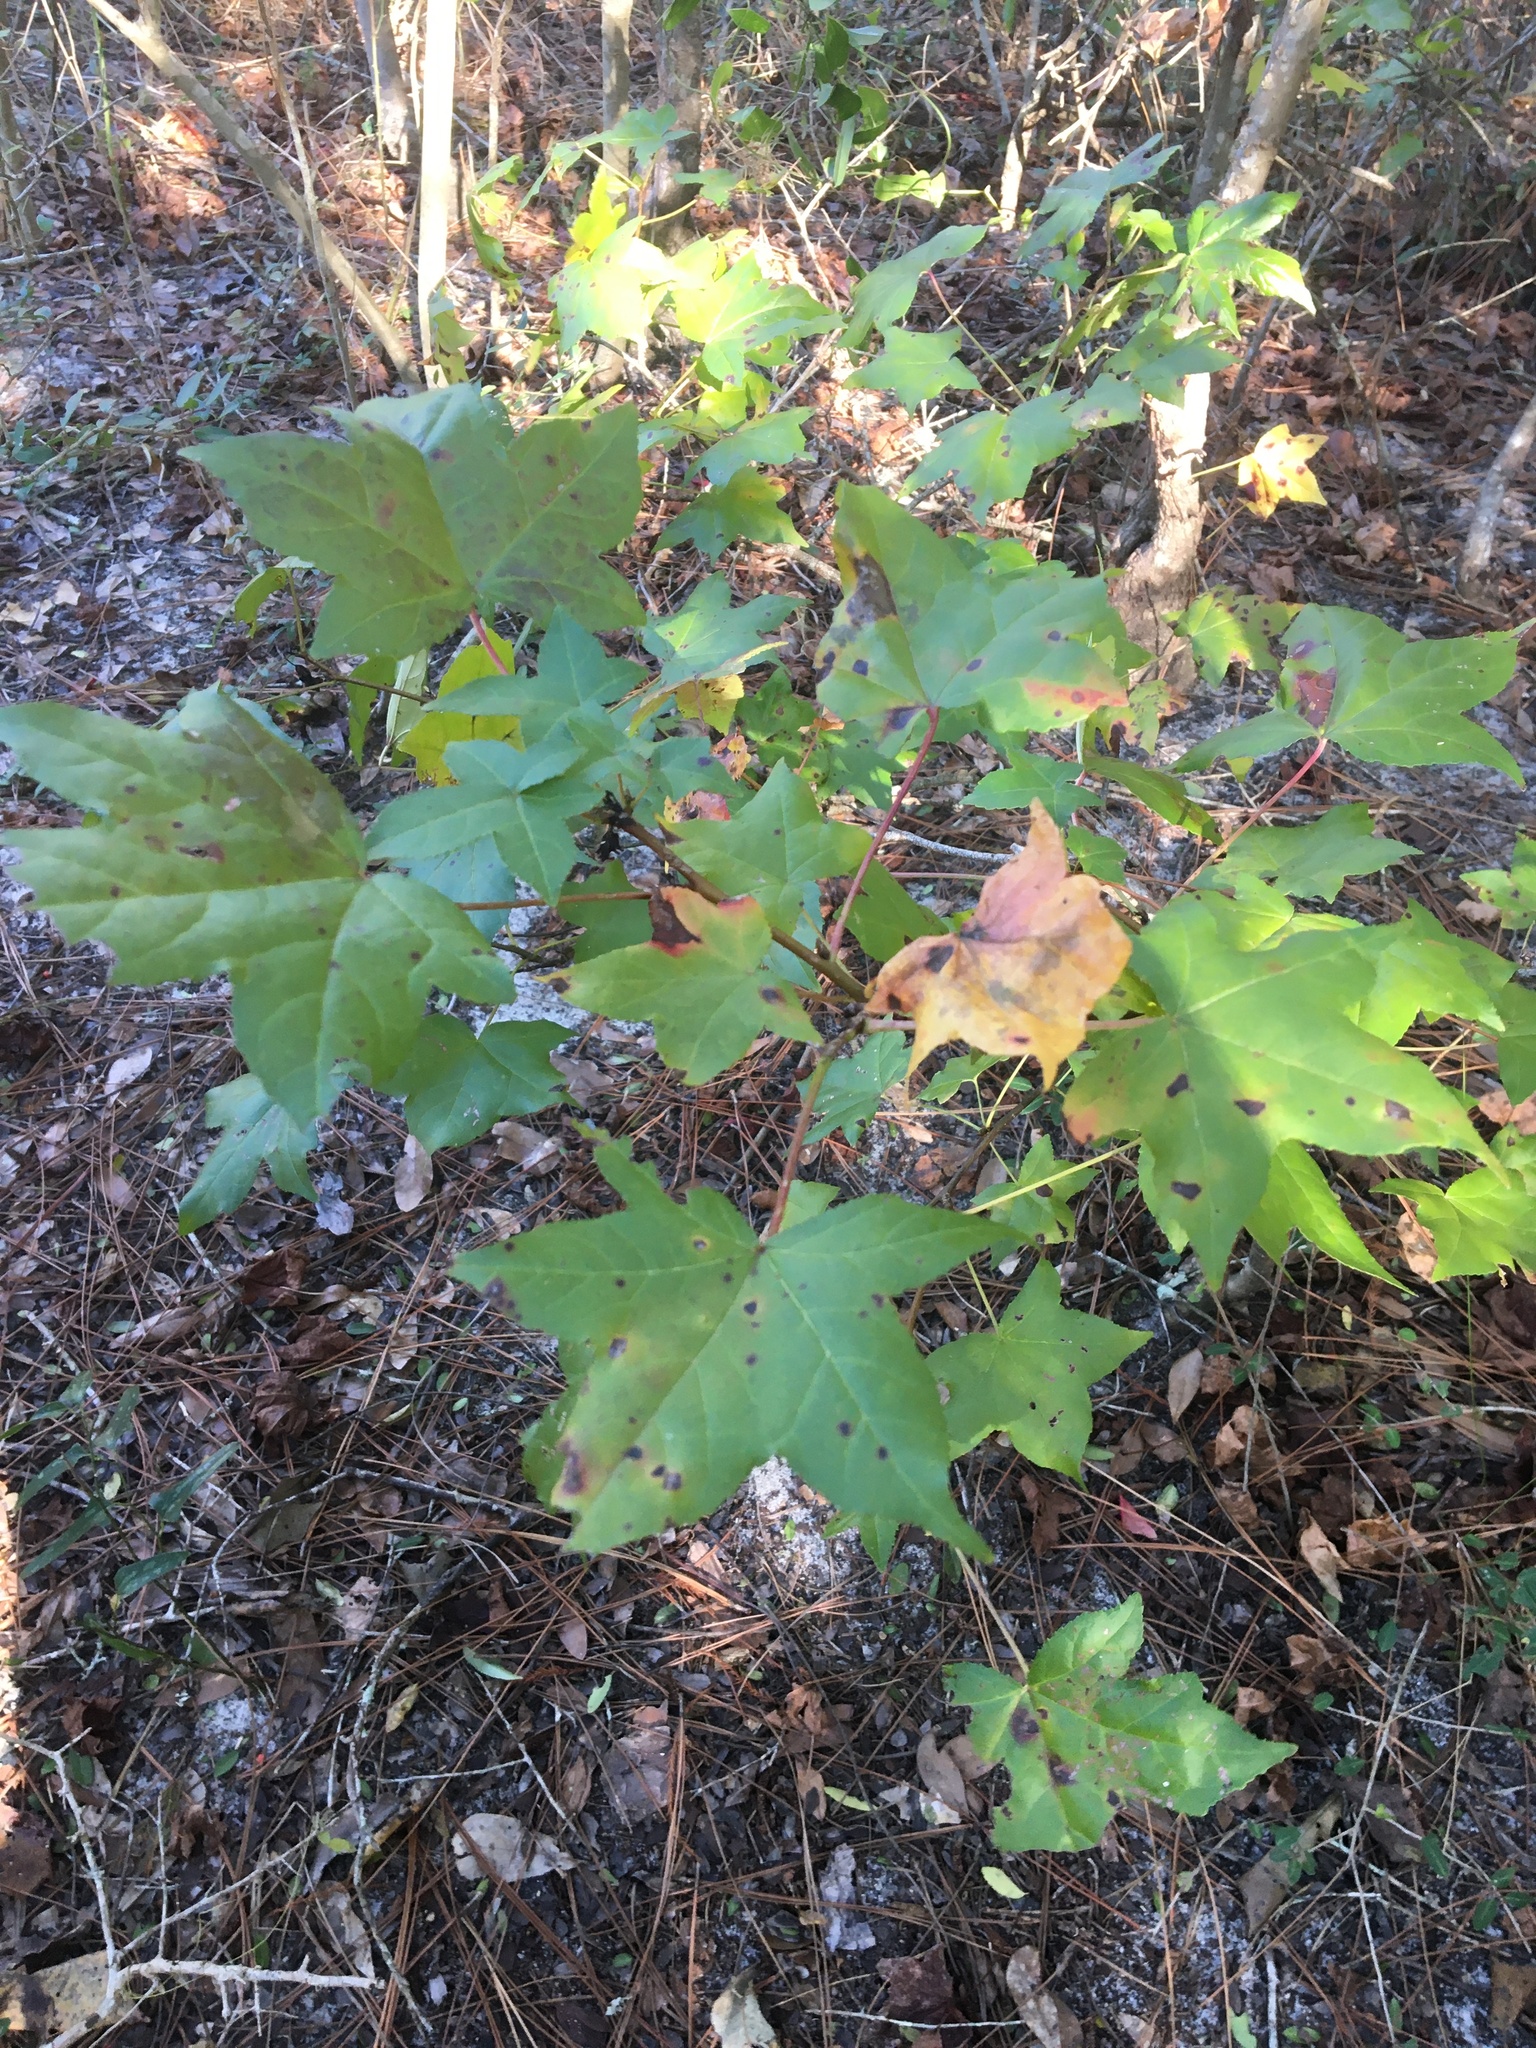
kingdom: Plantae
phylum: Tracheophyta
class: Magnoliopsida
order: Saxifragales
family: Altingiaceae
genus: Liquidambar
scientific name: Liquidambar styraciflua
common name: Sweet gum
